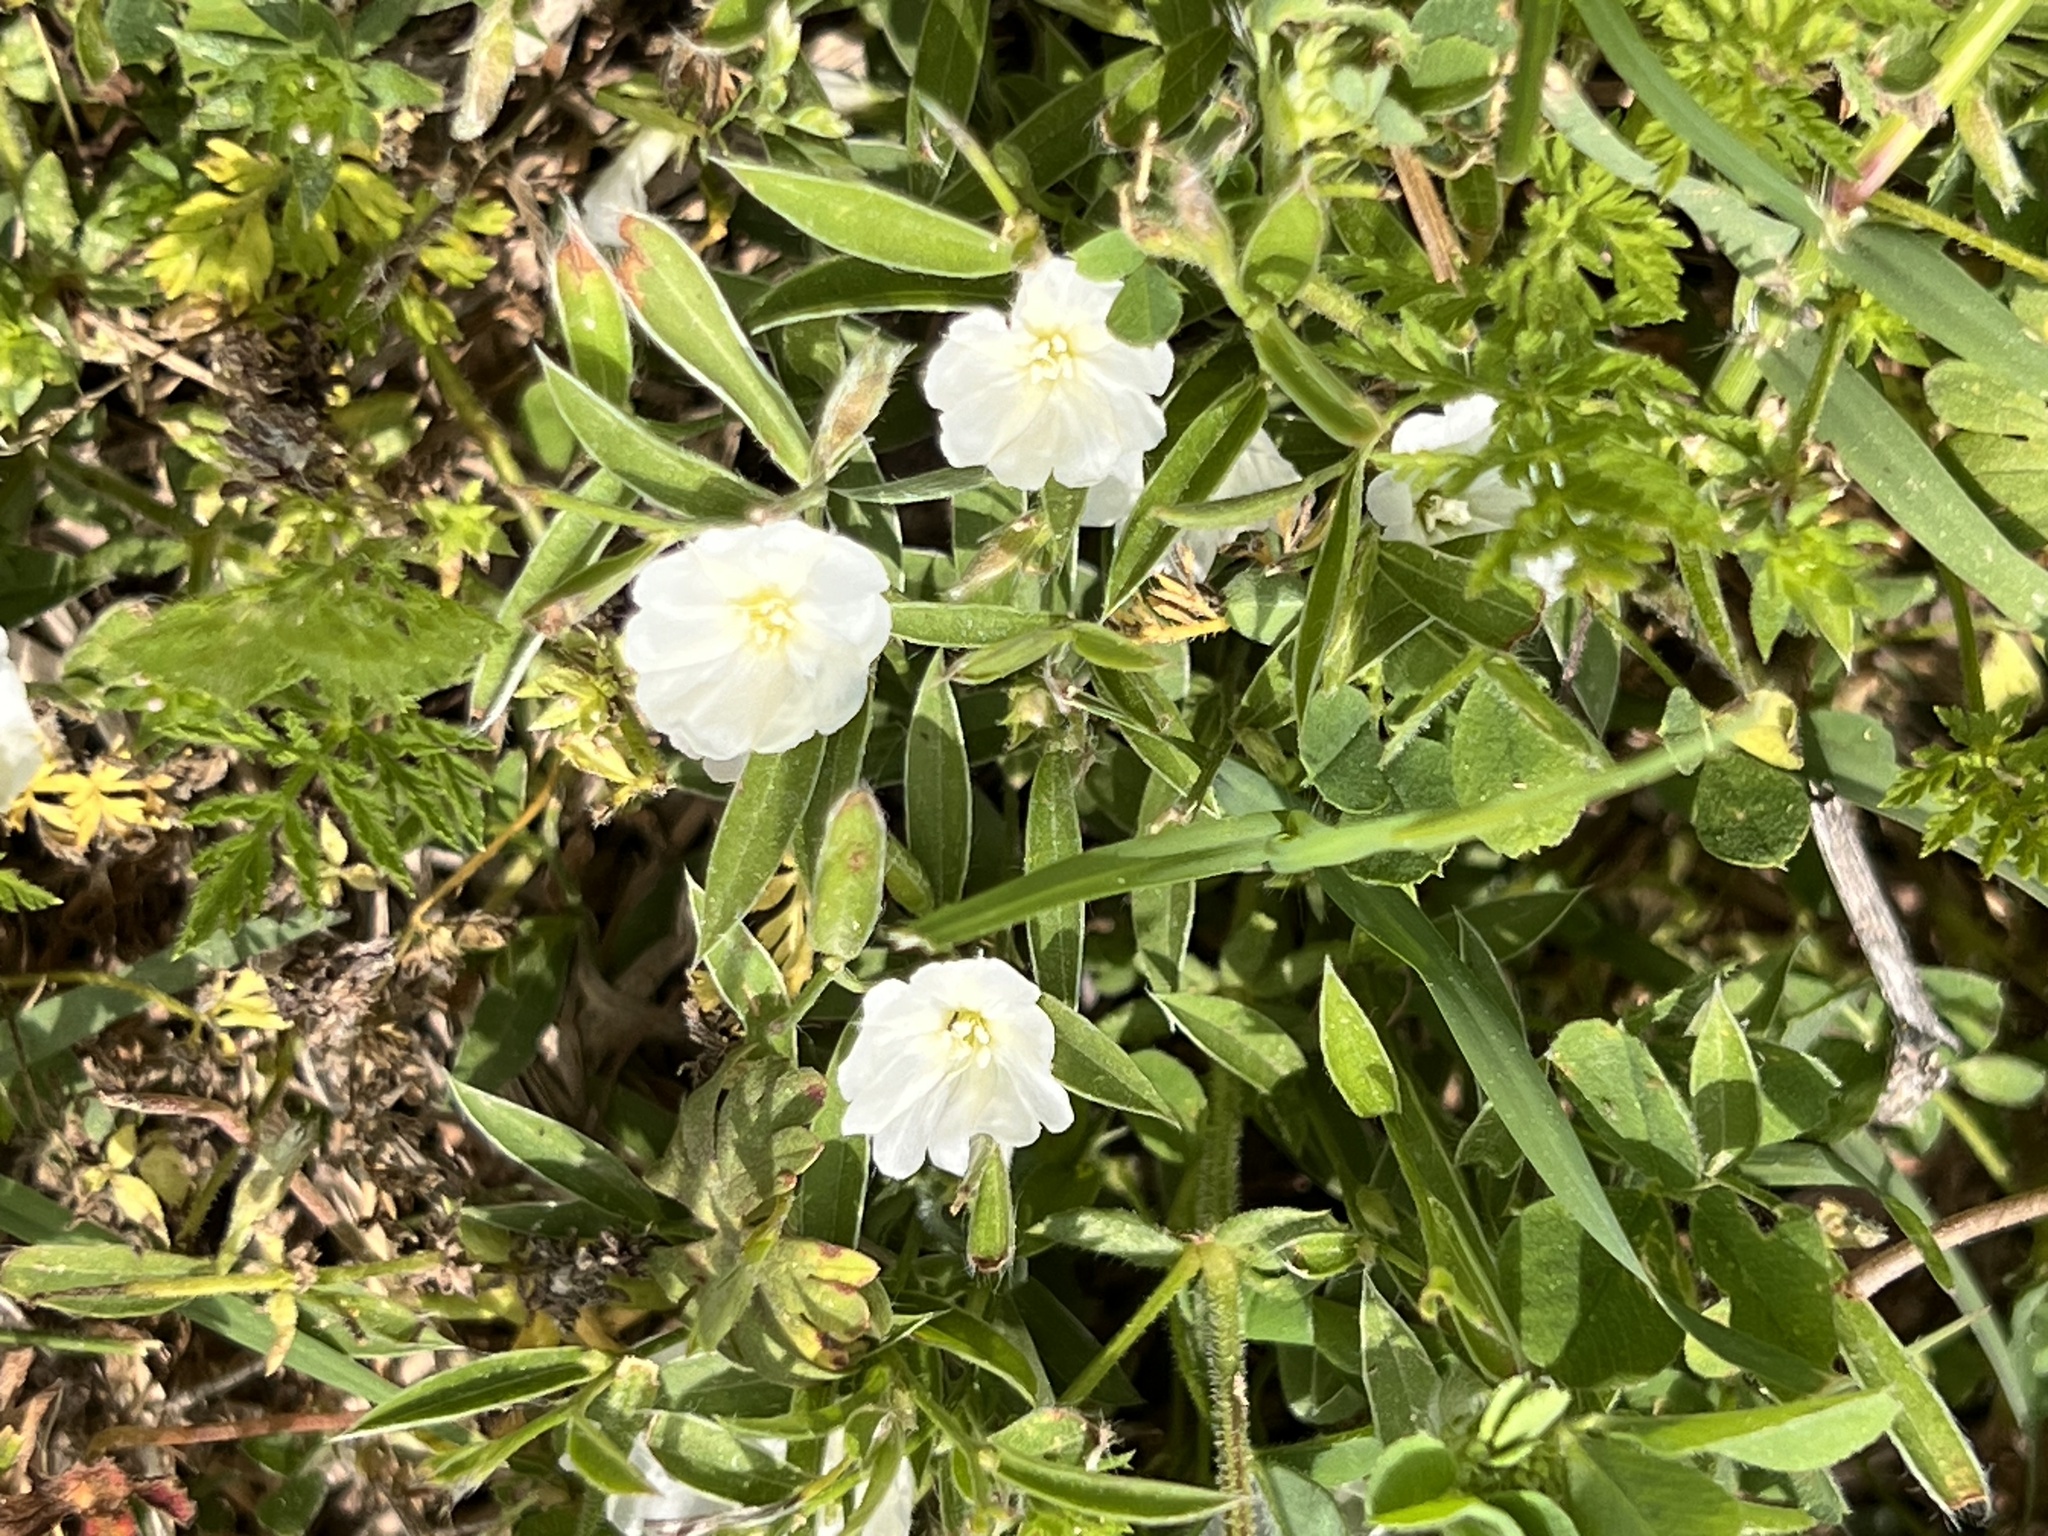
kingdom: Plantae
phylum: Tracheophyta
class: Magnoliopsida
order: Solanales
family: Convolvulaceae
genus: Evolvulus
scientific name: Evolvulus sericeus
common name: Blue dots
